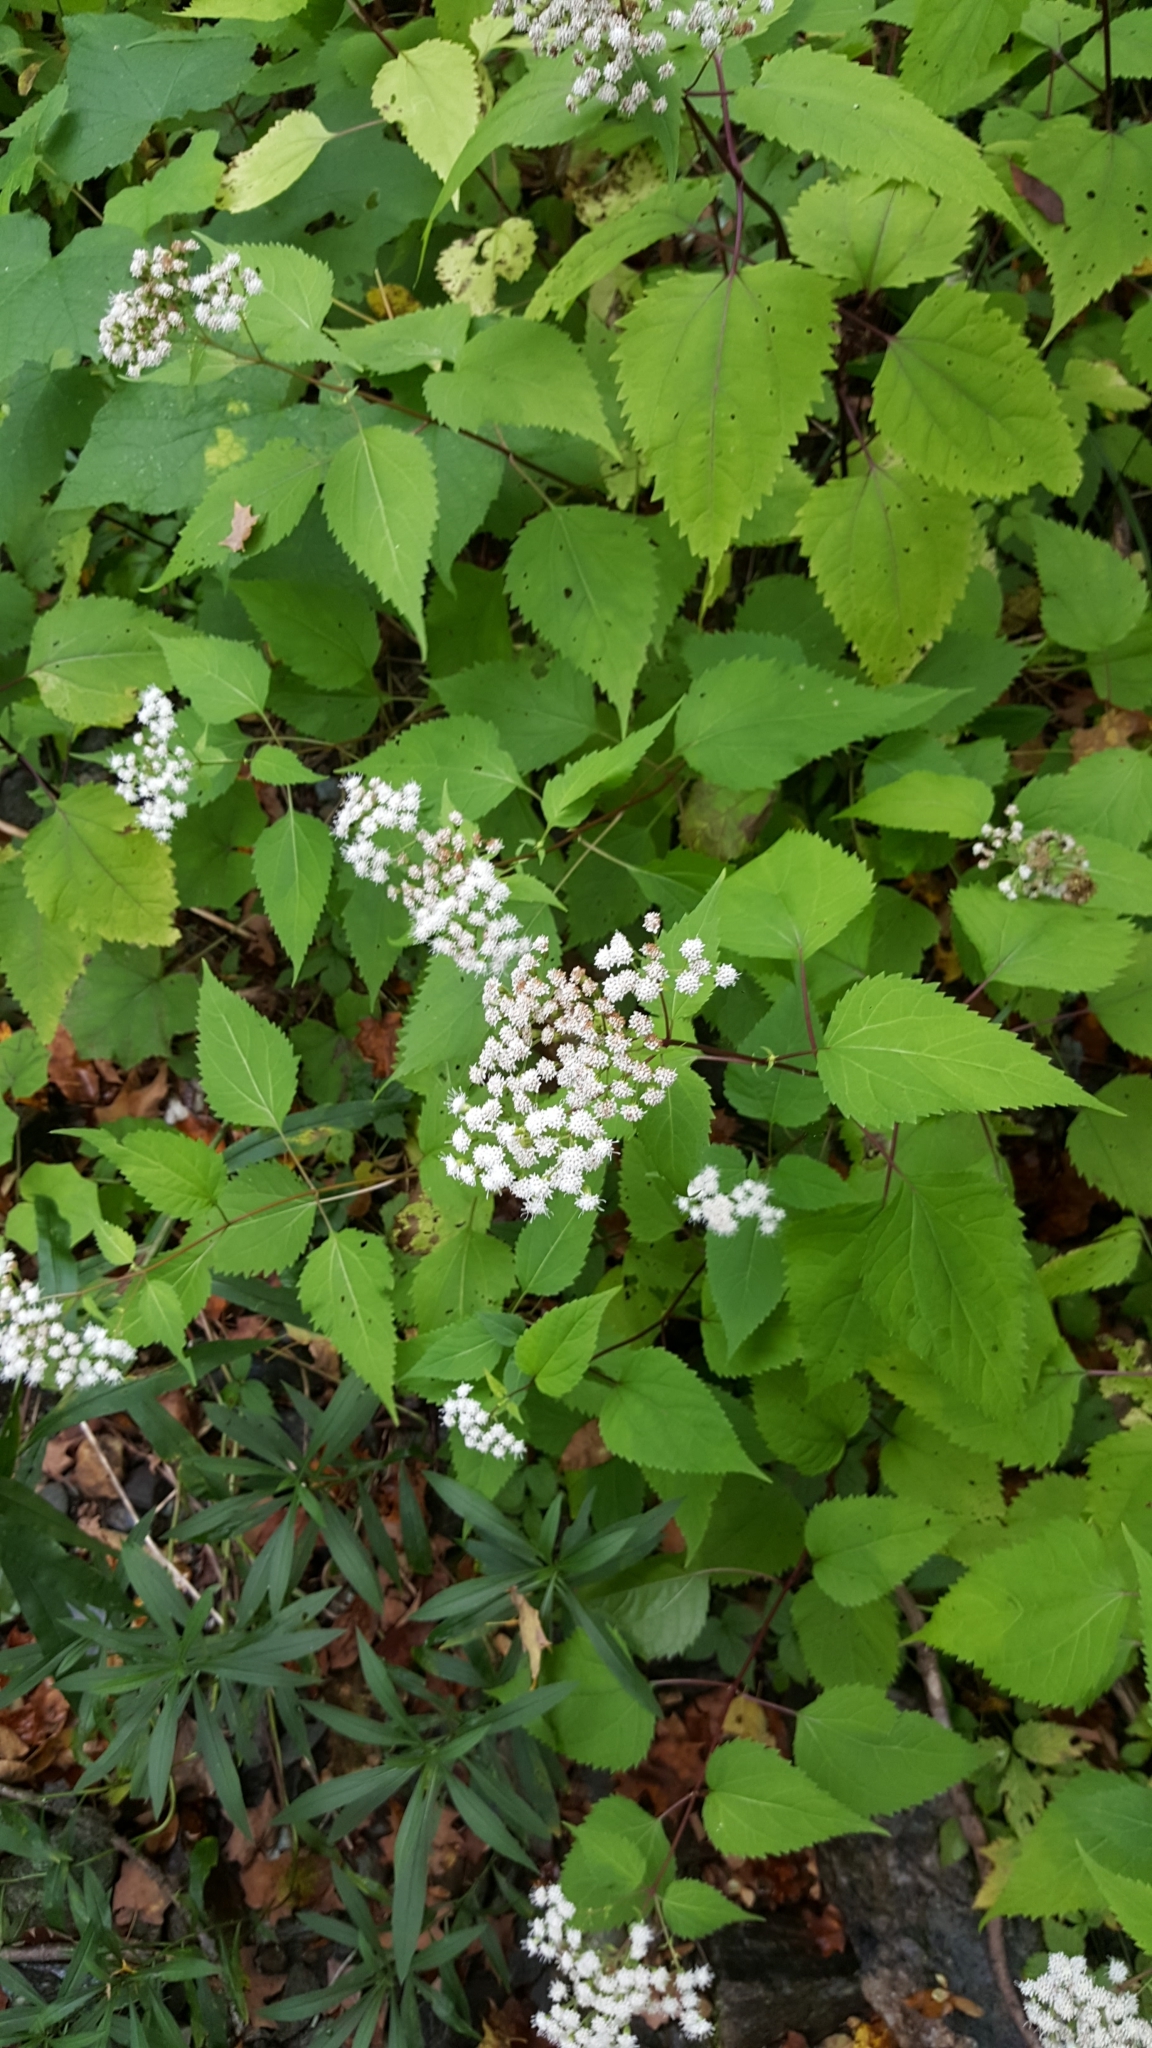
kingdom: Plantae
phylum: Tracheophyta
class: Magnoliopsida
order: Asterales
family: Asteraceae
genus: Ageratina
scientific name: Ageratina altissima
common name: White snakeroot
